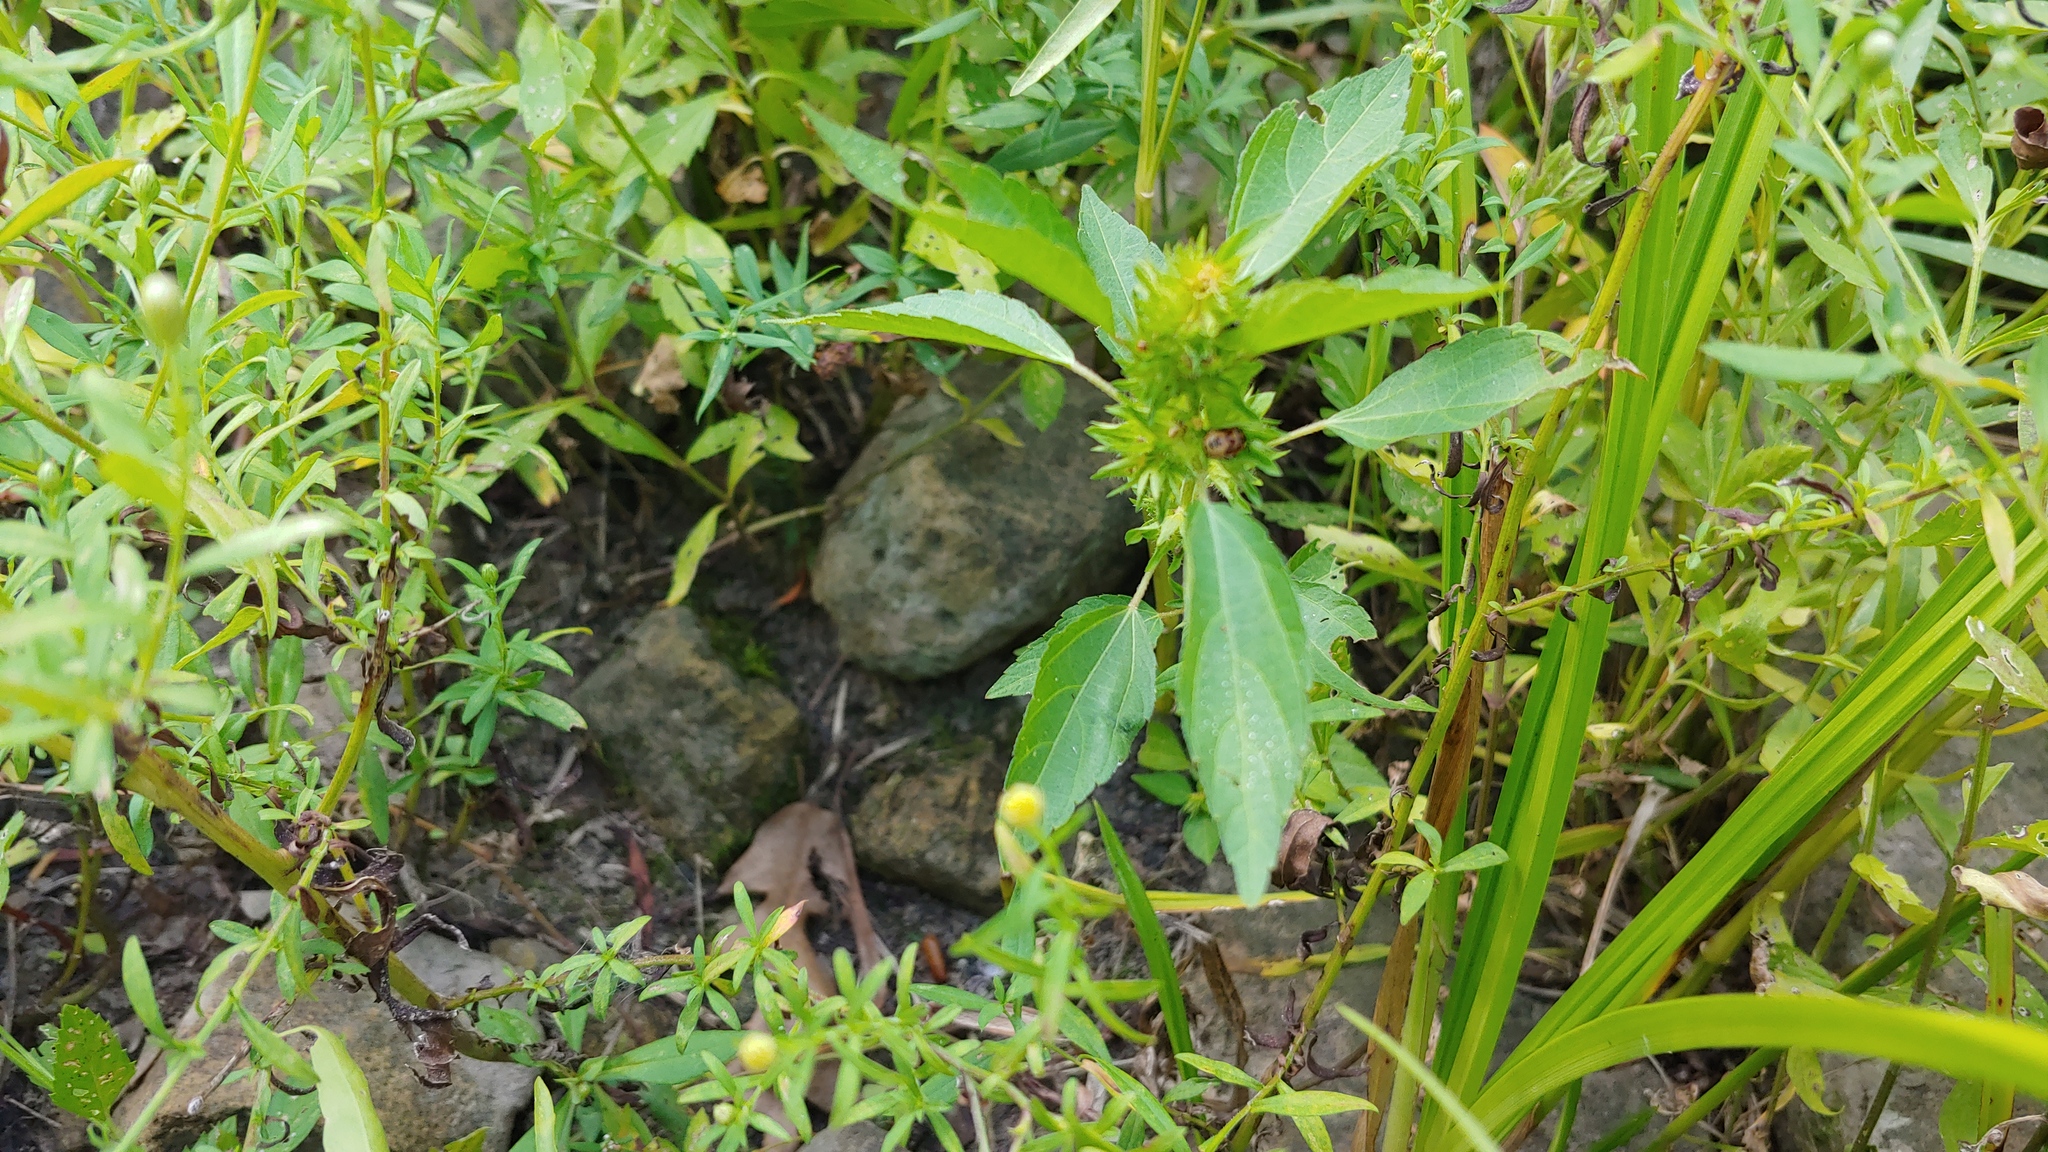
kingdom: Plantae
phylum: Tracheophyta
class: Magnoliopsida
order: Malpighiales
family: Euphorbiaceae
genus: Acalypha
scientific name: Acalypha rhomboidea
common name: Rhombic copperleaf
